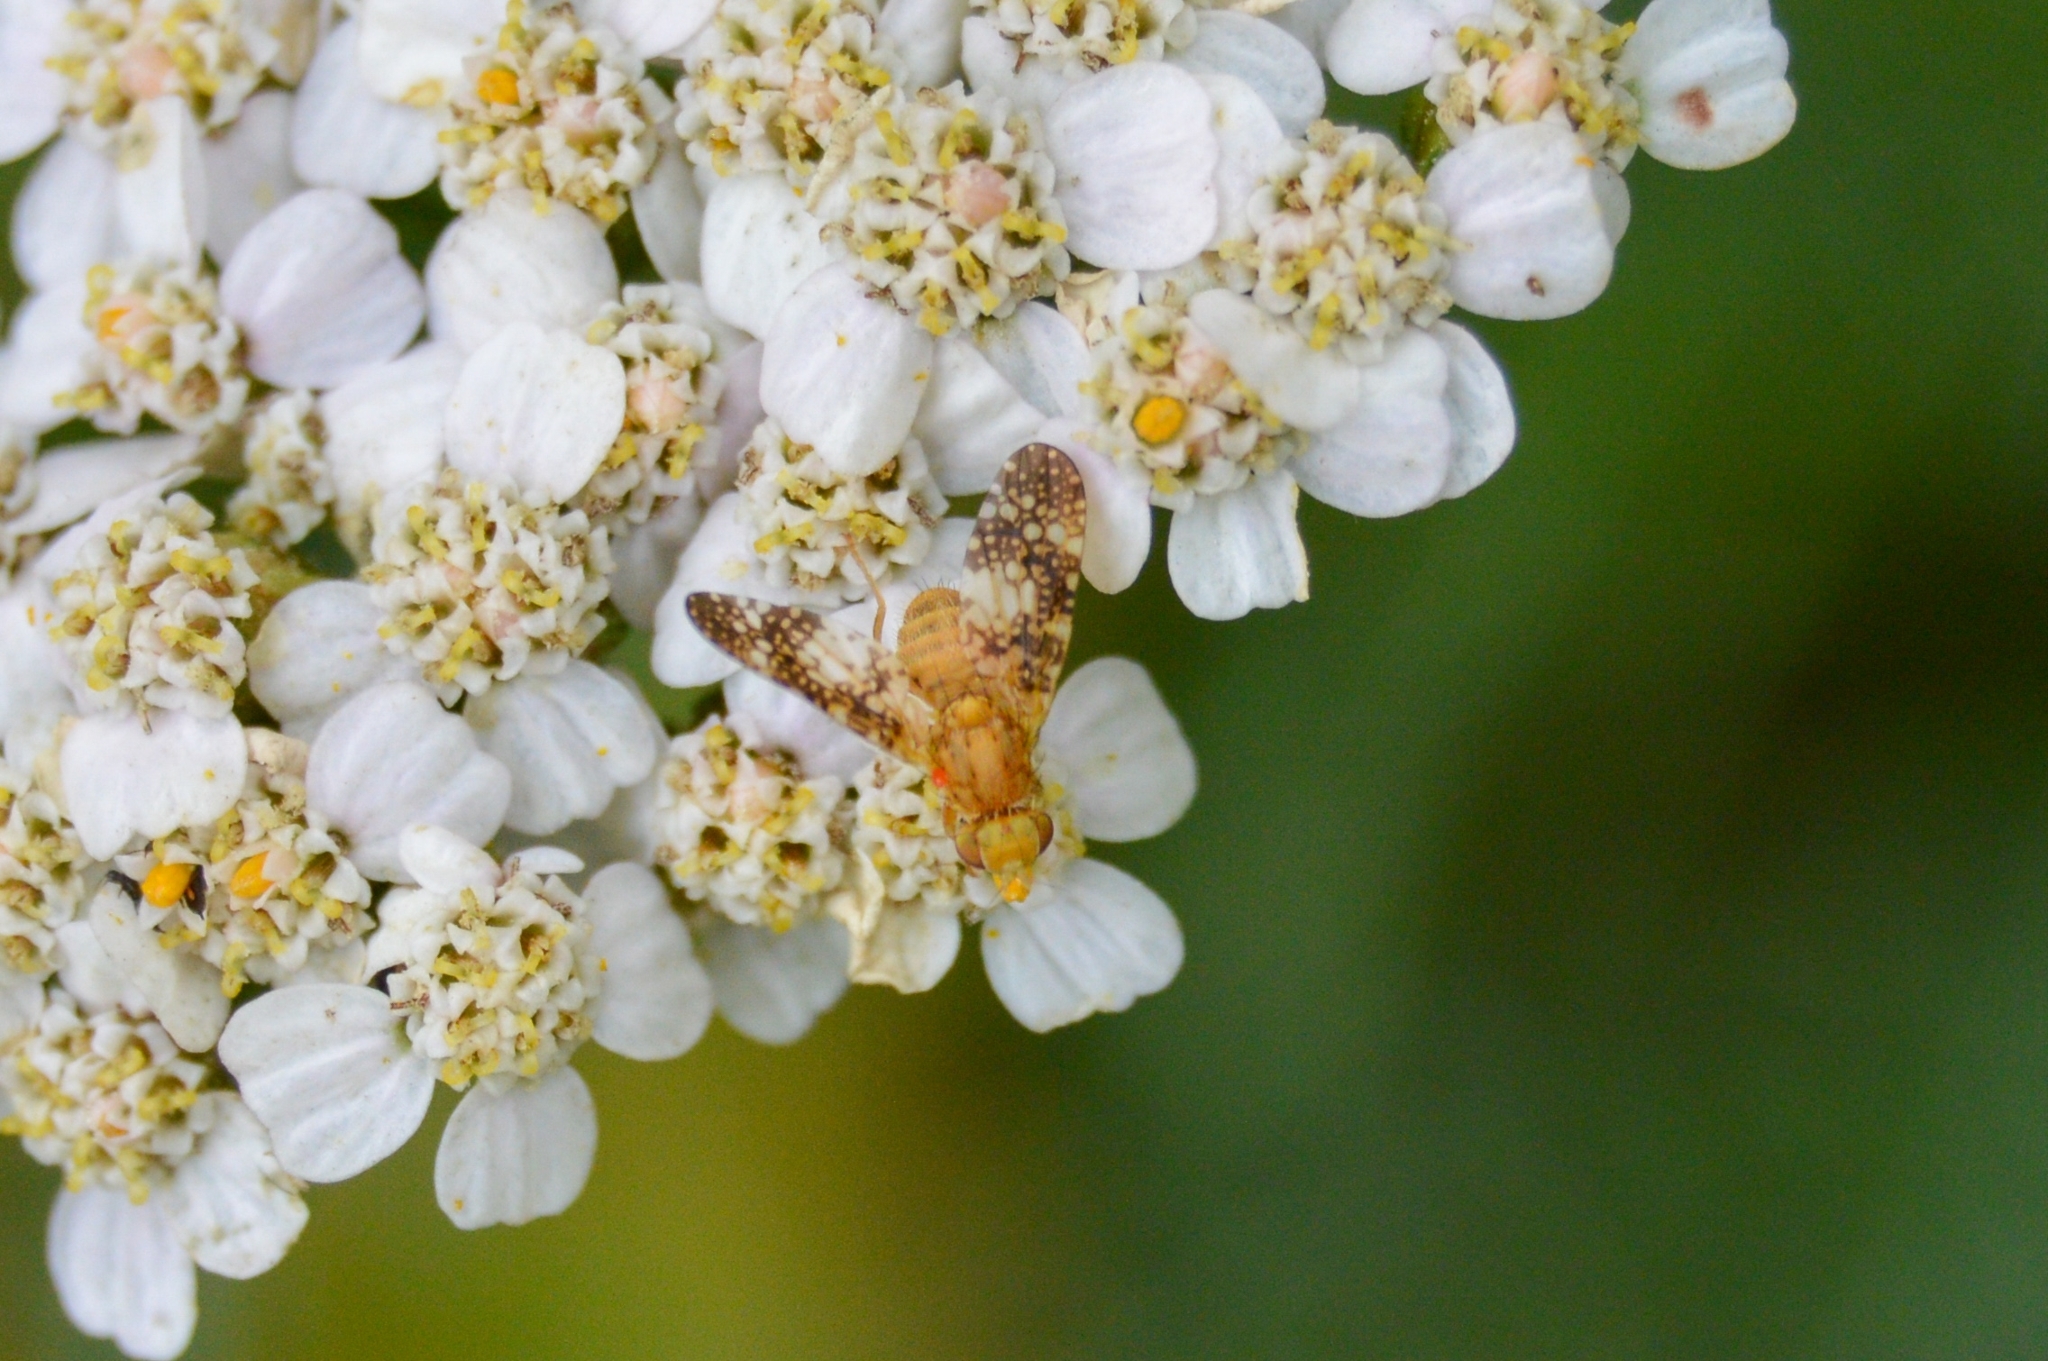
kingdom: Animalia
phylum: Arthropoda
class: Insecta
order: Diptera
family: Tephritidae
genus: Oxyna
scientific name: Oxyna flavipennis
